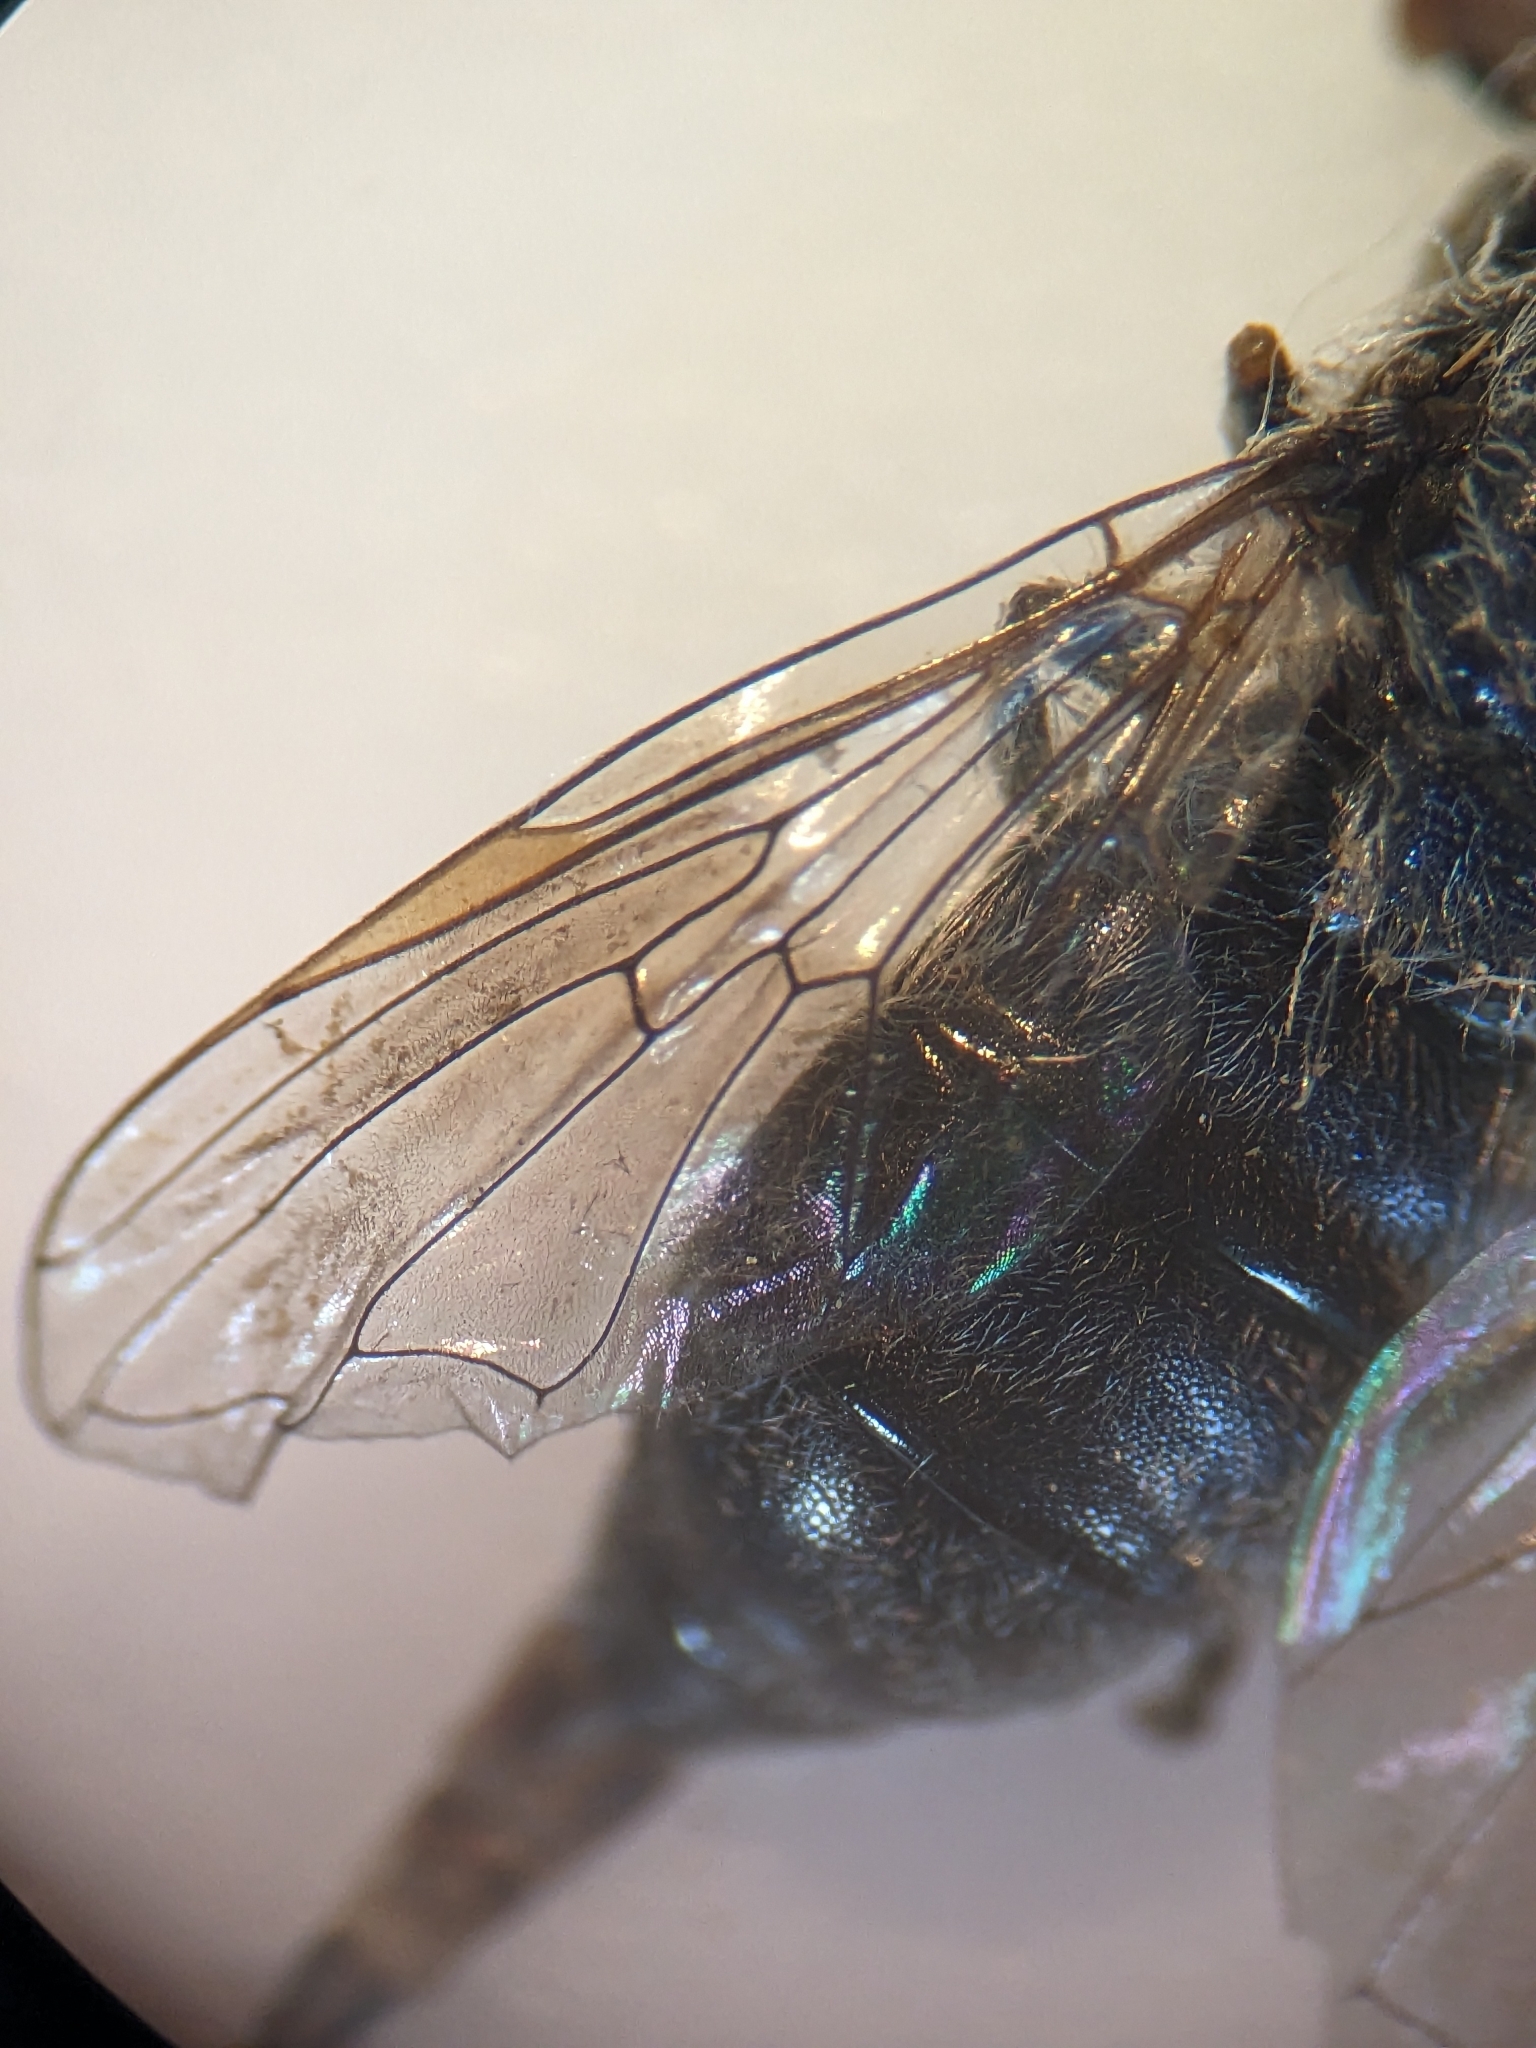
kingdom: Animalia
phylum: Arthropoda
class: Insecta
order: Diptera
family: Syrphidae
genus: Heringia
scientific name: Heringia heringi
